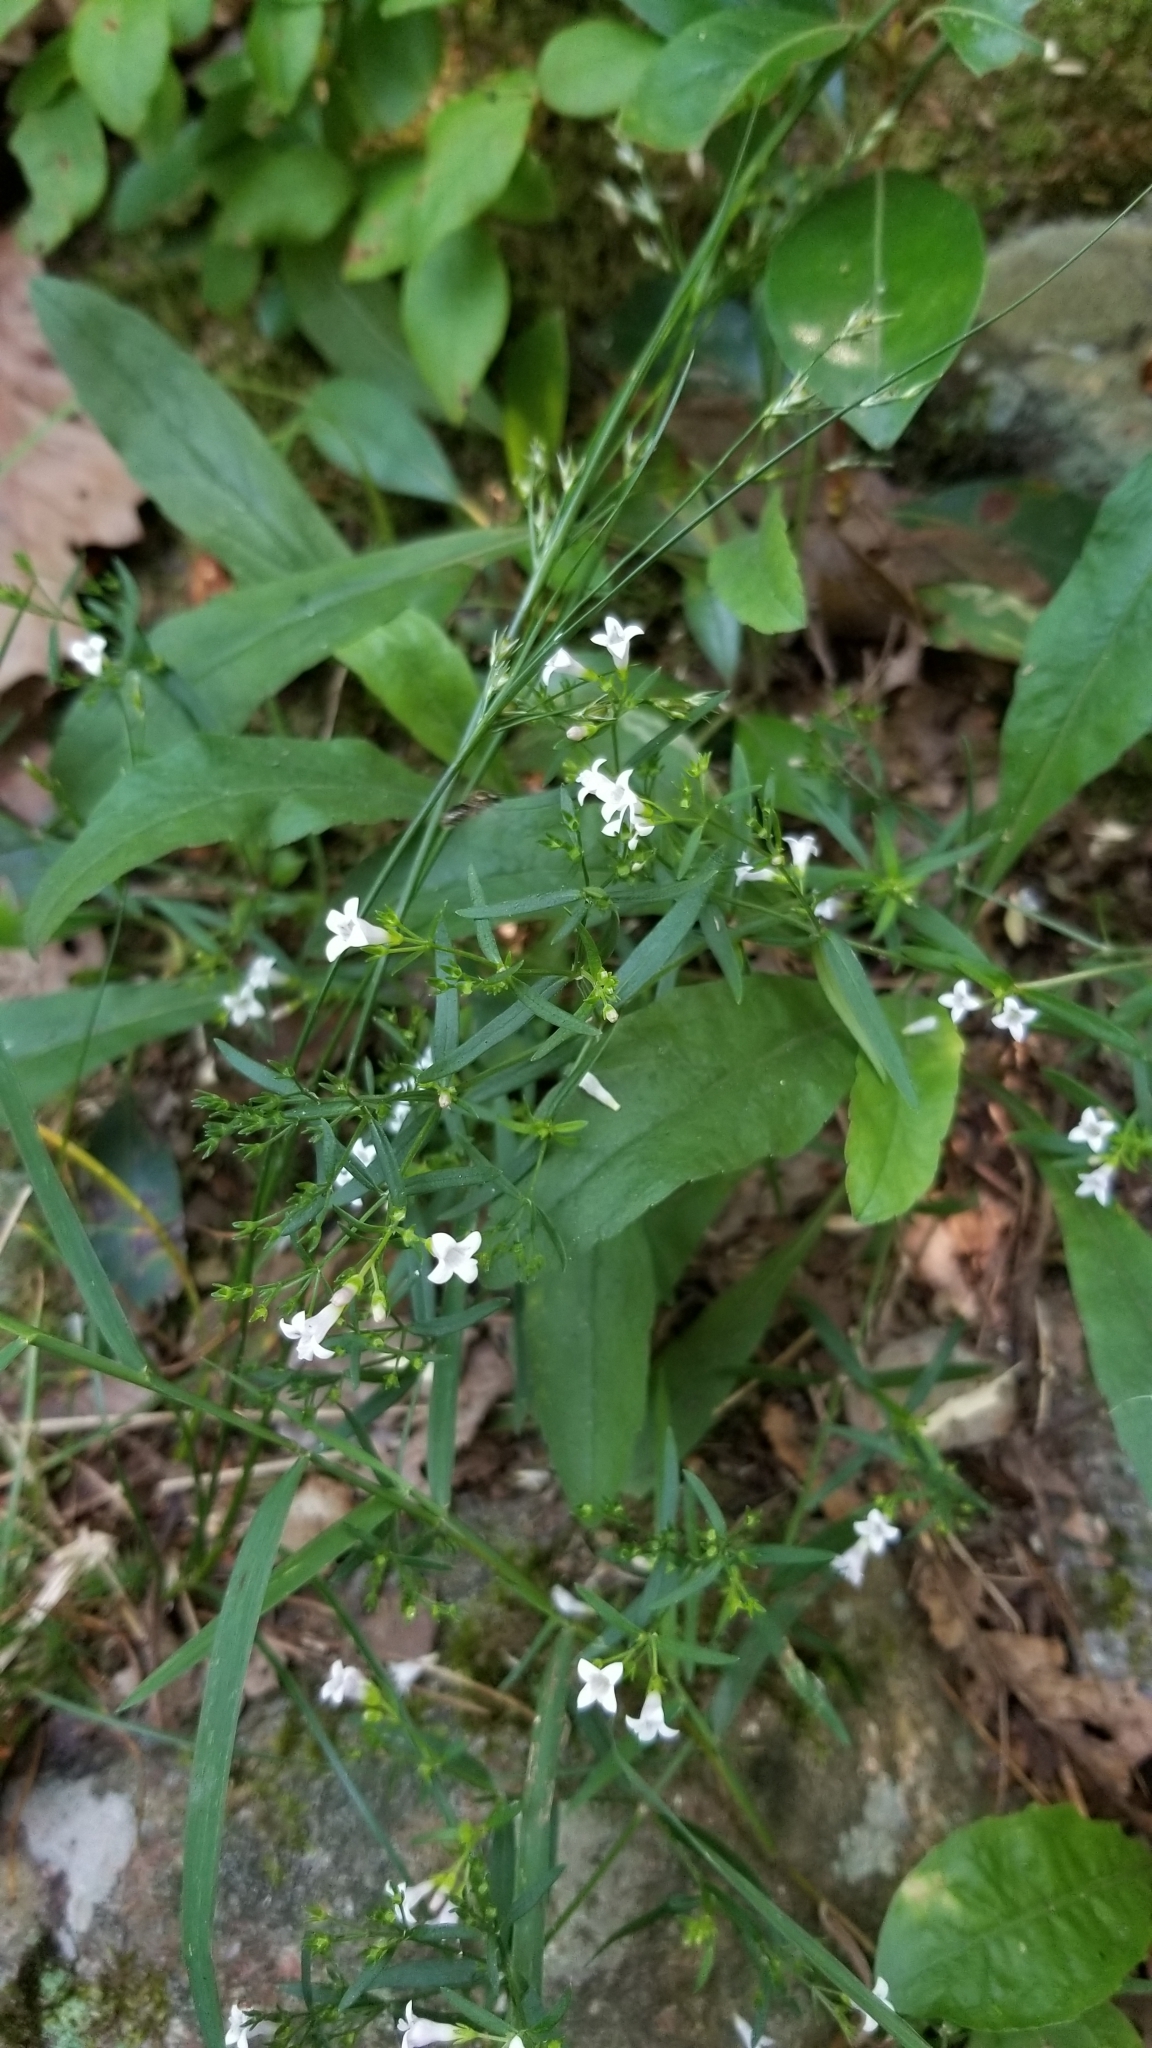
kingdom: Plantae
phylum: Tracheophyta
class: Magnoliopsida
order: Gentianales
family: Rubiaceae
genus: Houstonia
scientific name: Houstonia longifolia
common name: Long-leaved bluets
